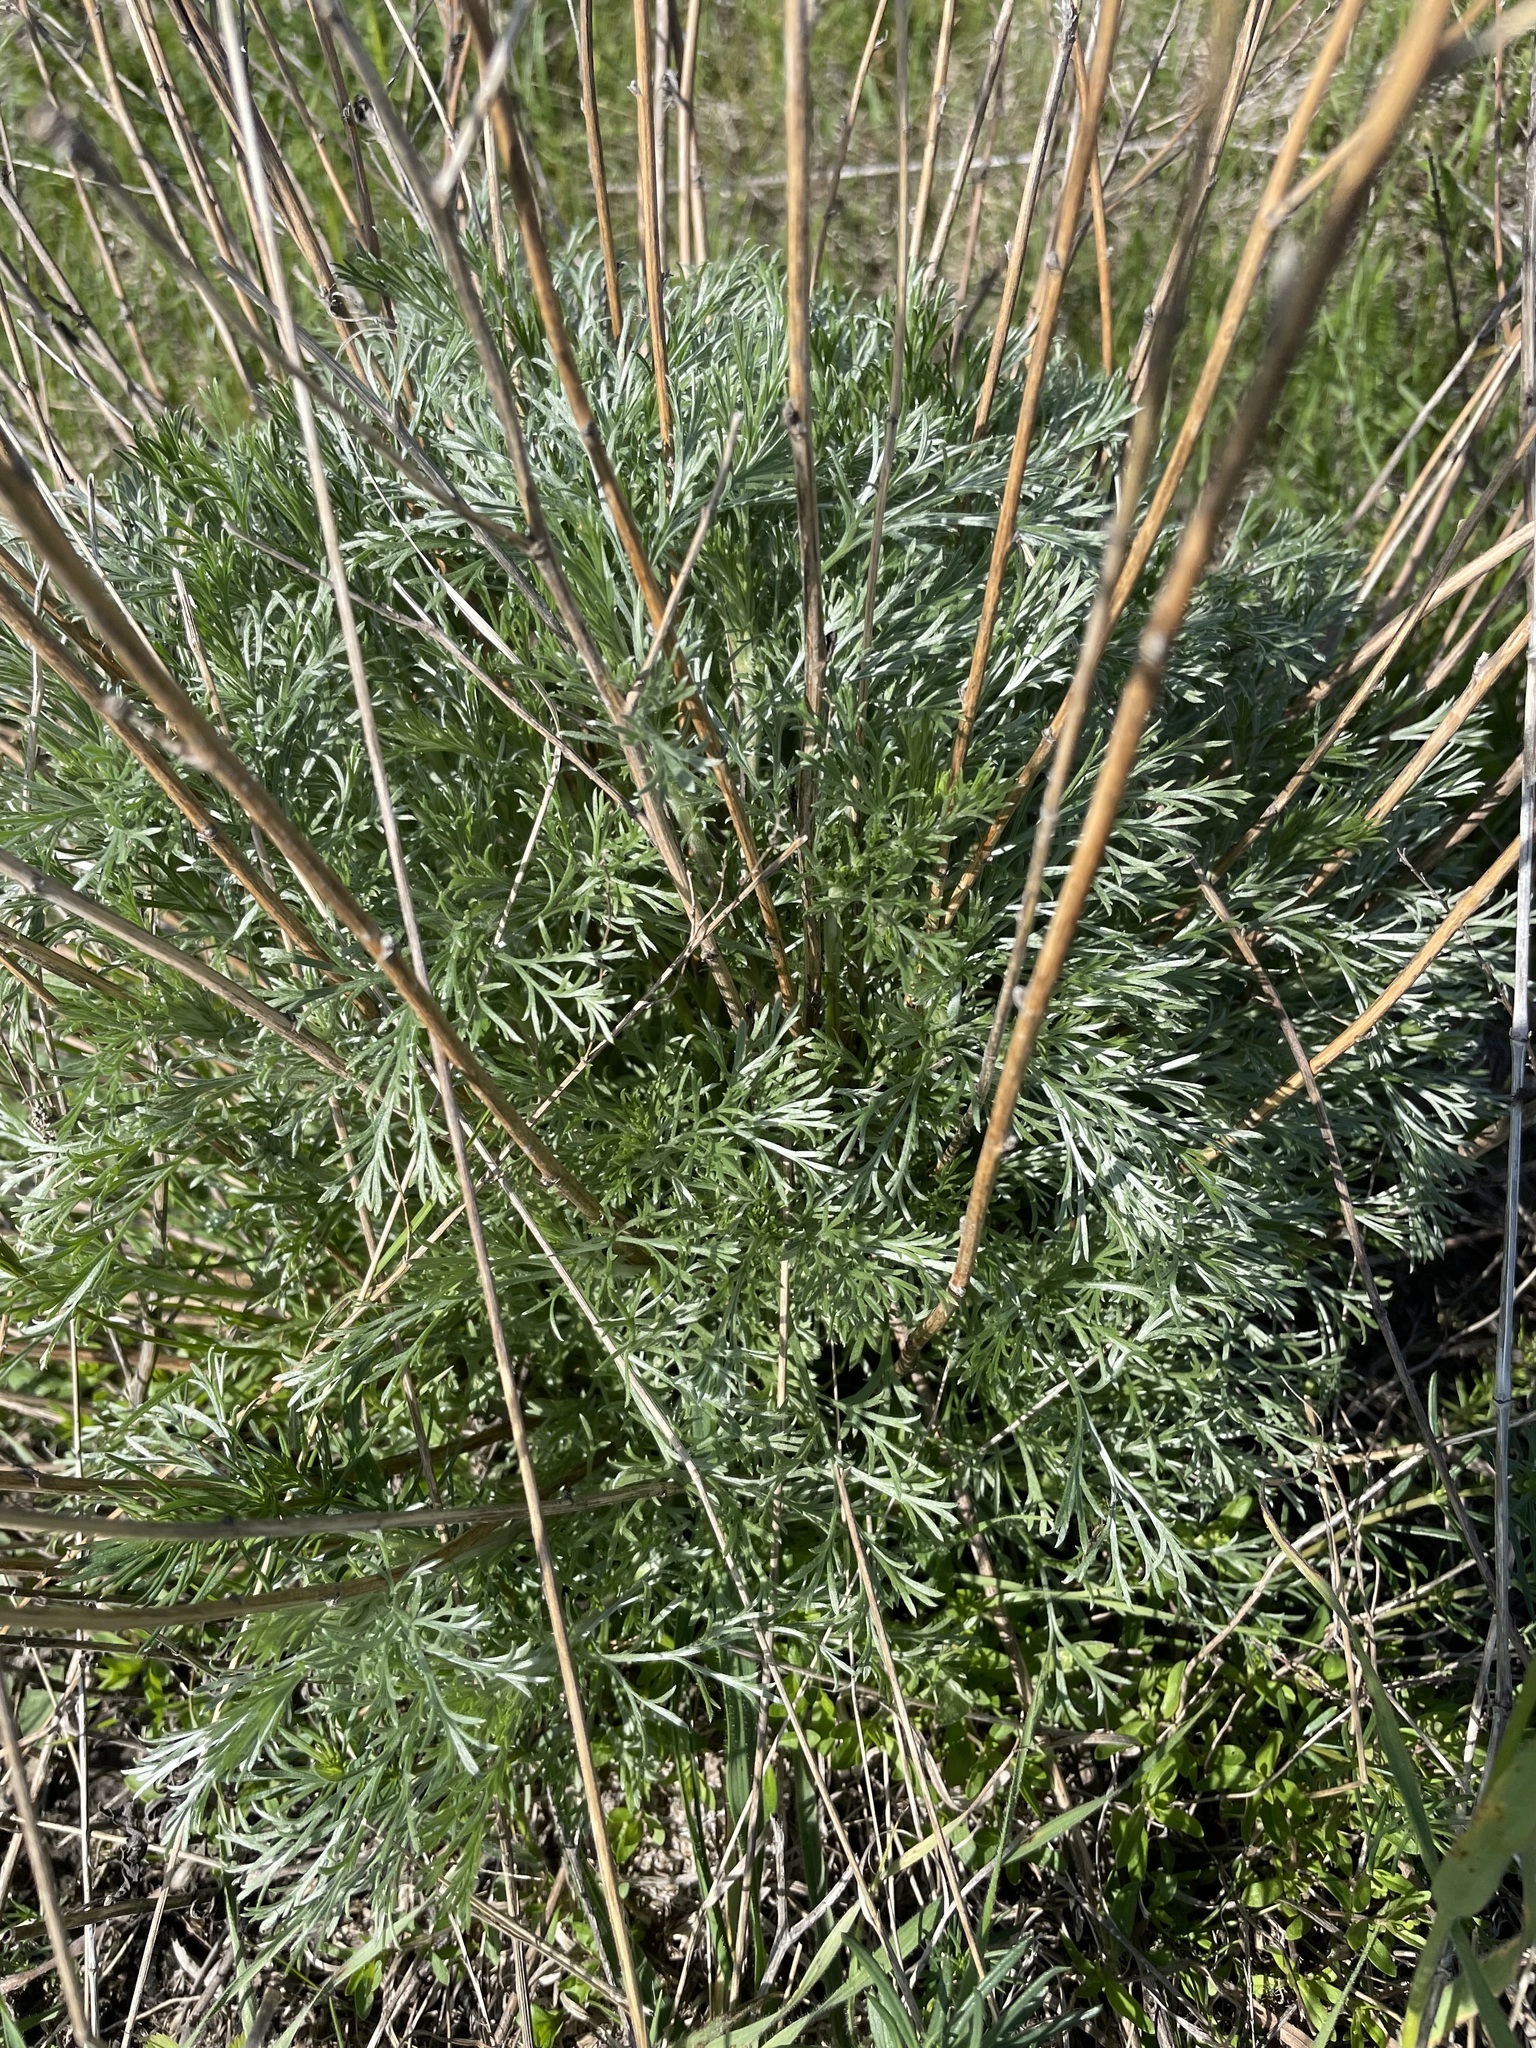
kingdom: Plantae
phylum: Tracheophyta
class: Magnoliopsida
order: Asterales
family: Asteraceae
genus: Artemisia
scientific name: Artemisia campestris
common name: Field wormwood
